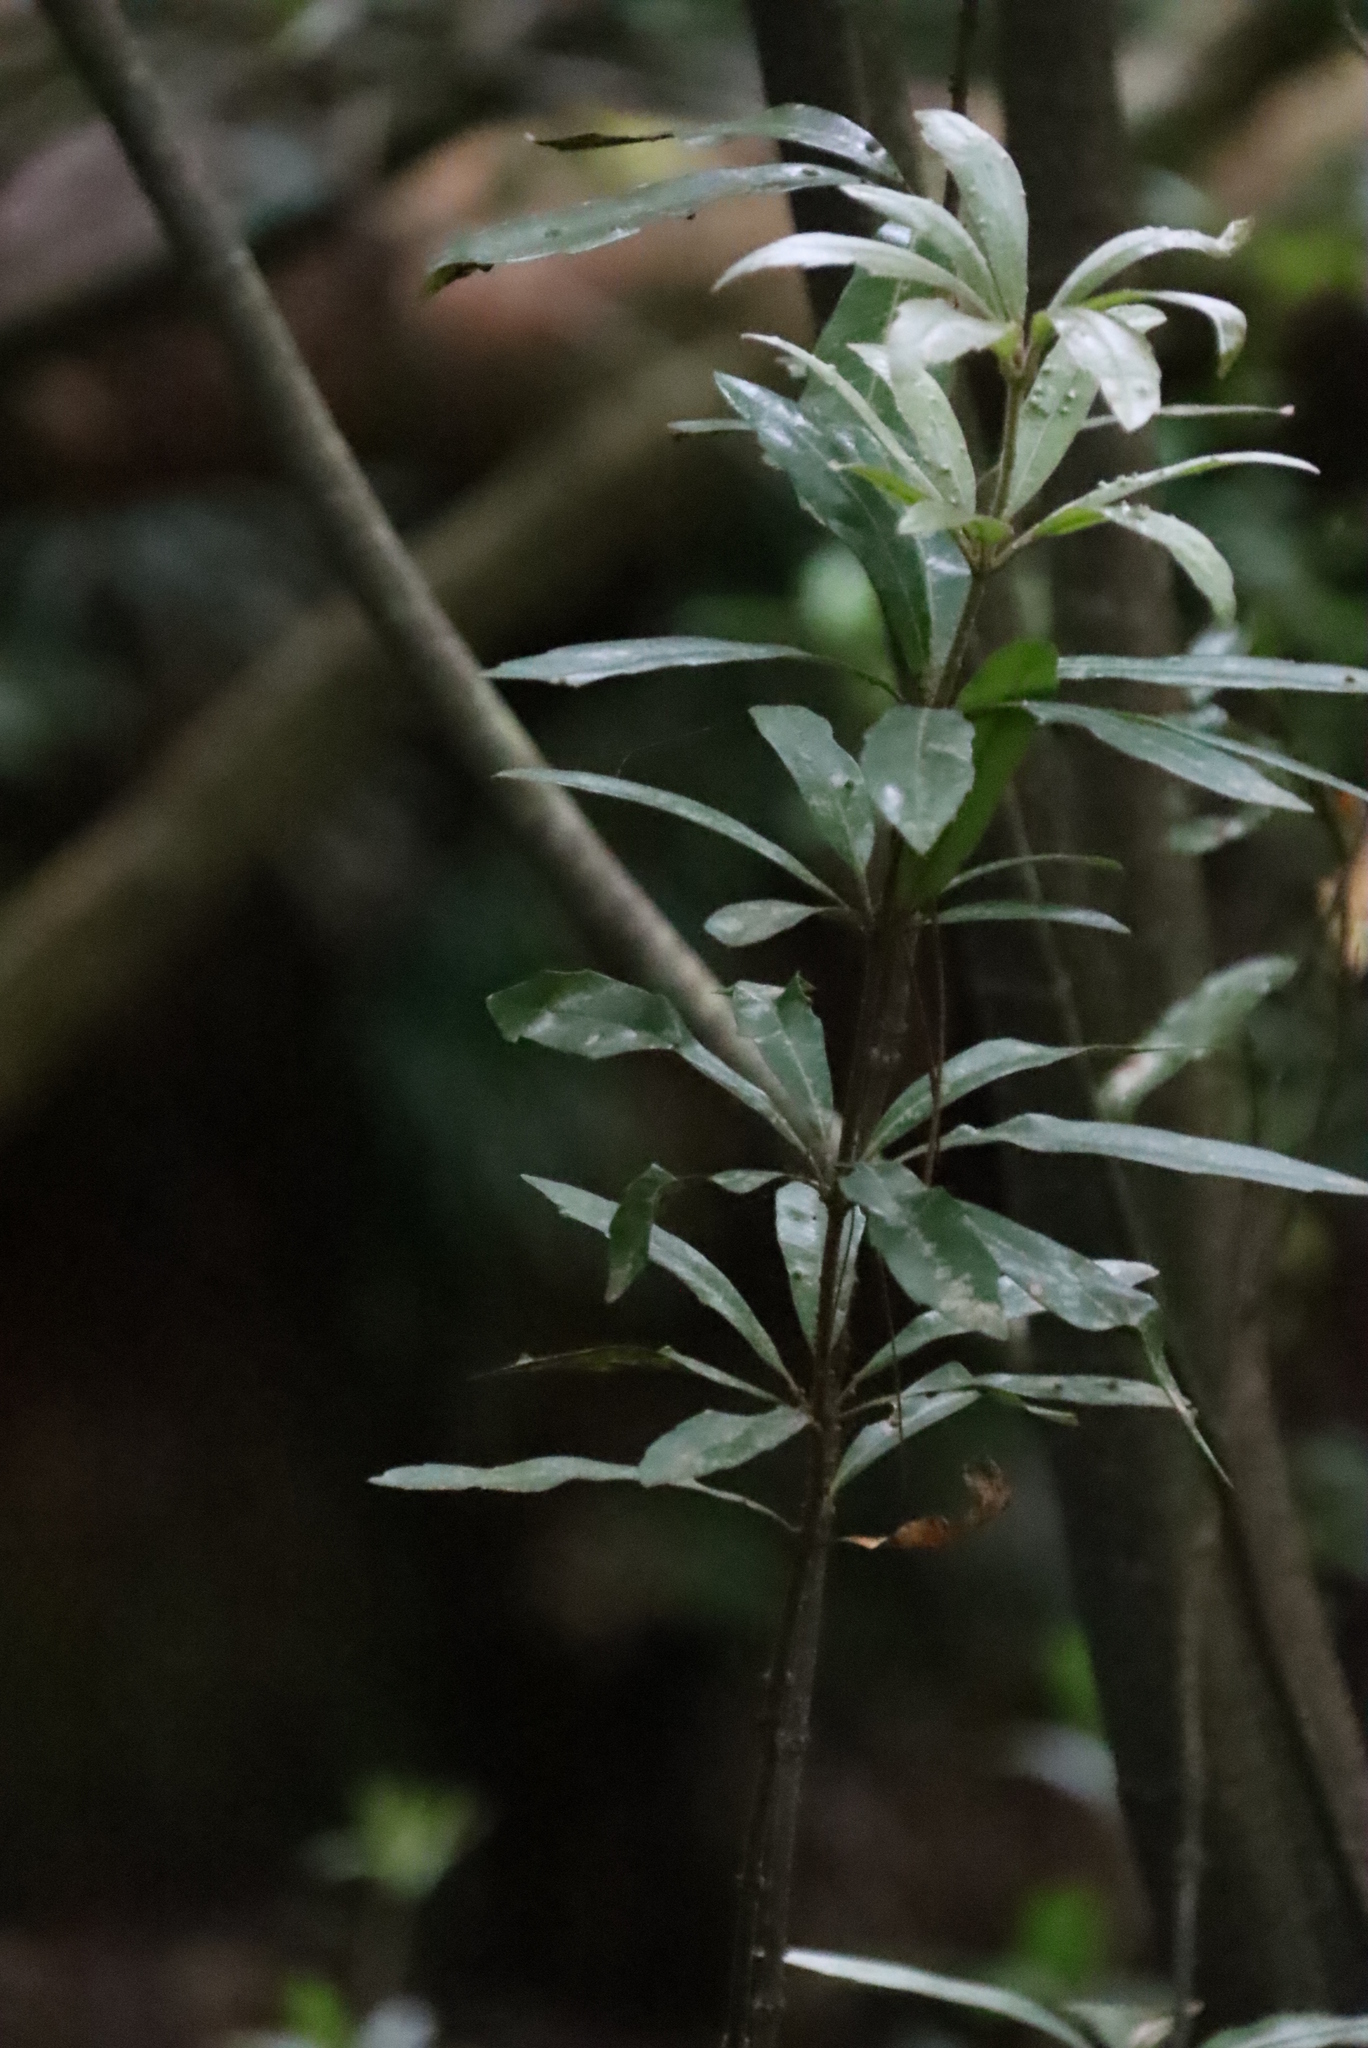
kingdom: Plantae
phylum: Tracheophyta
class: Magnoliopsida
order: Proteales
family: Proteaceae
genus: Brabejum
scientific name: Brabejum stellatifolium
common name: Wild almond
